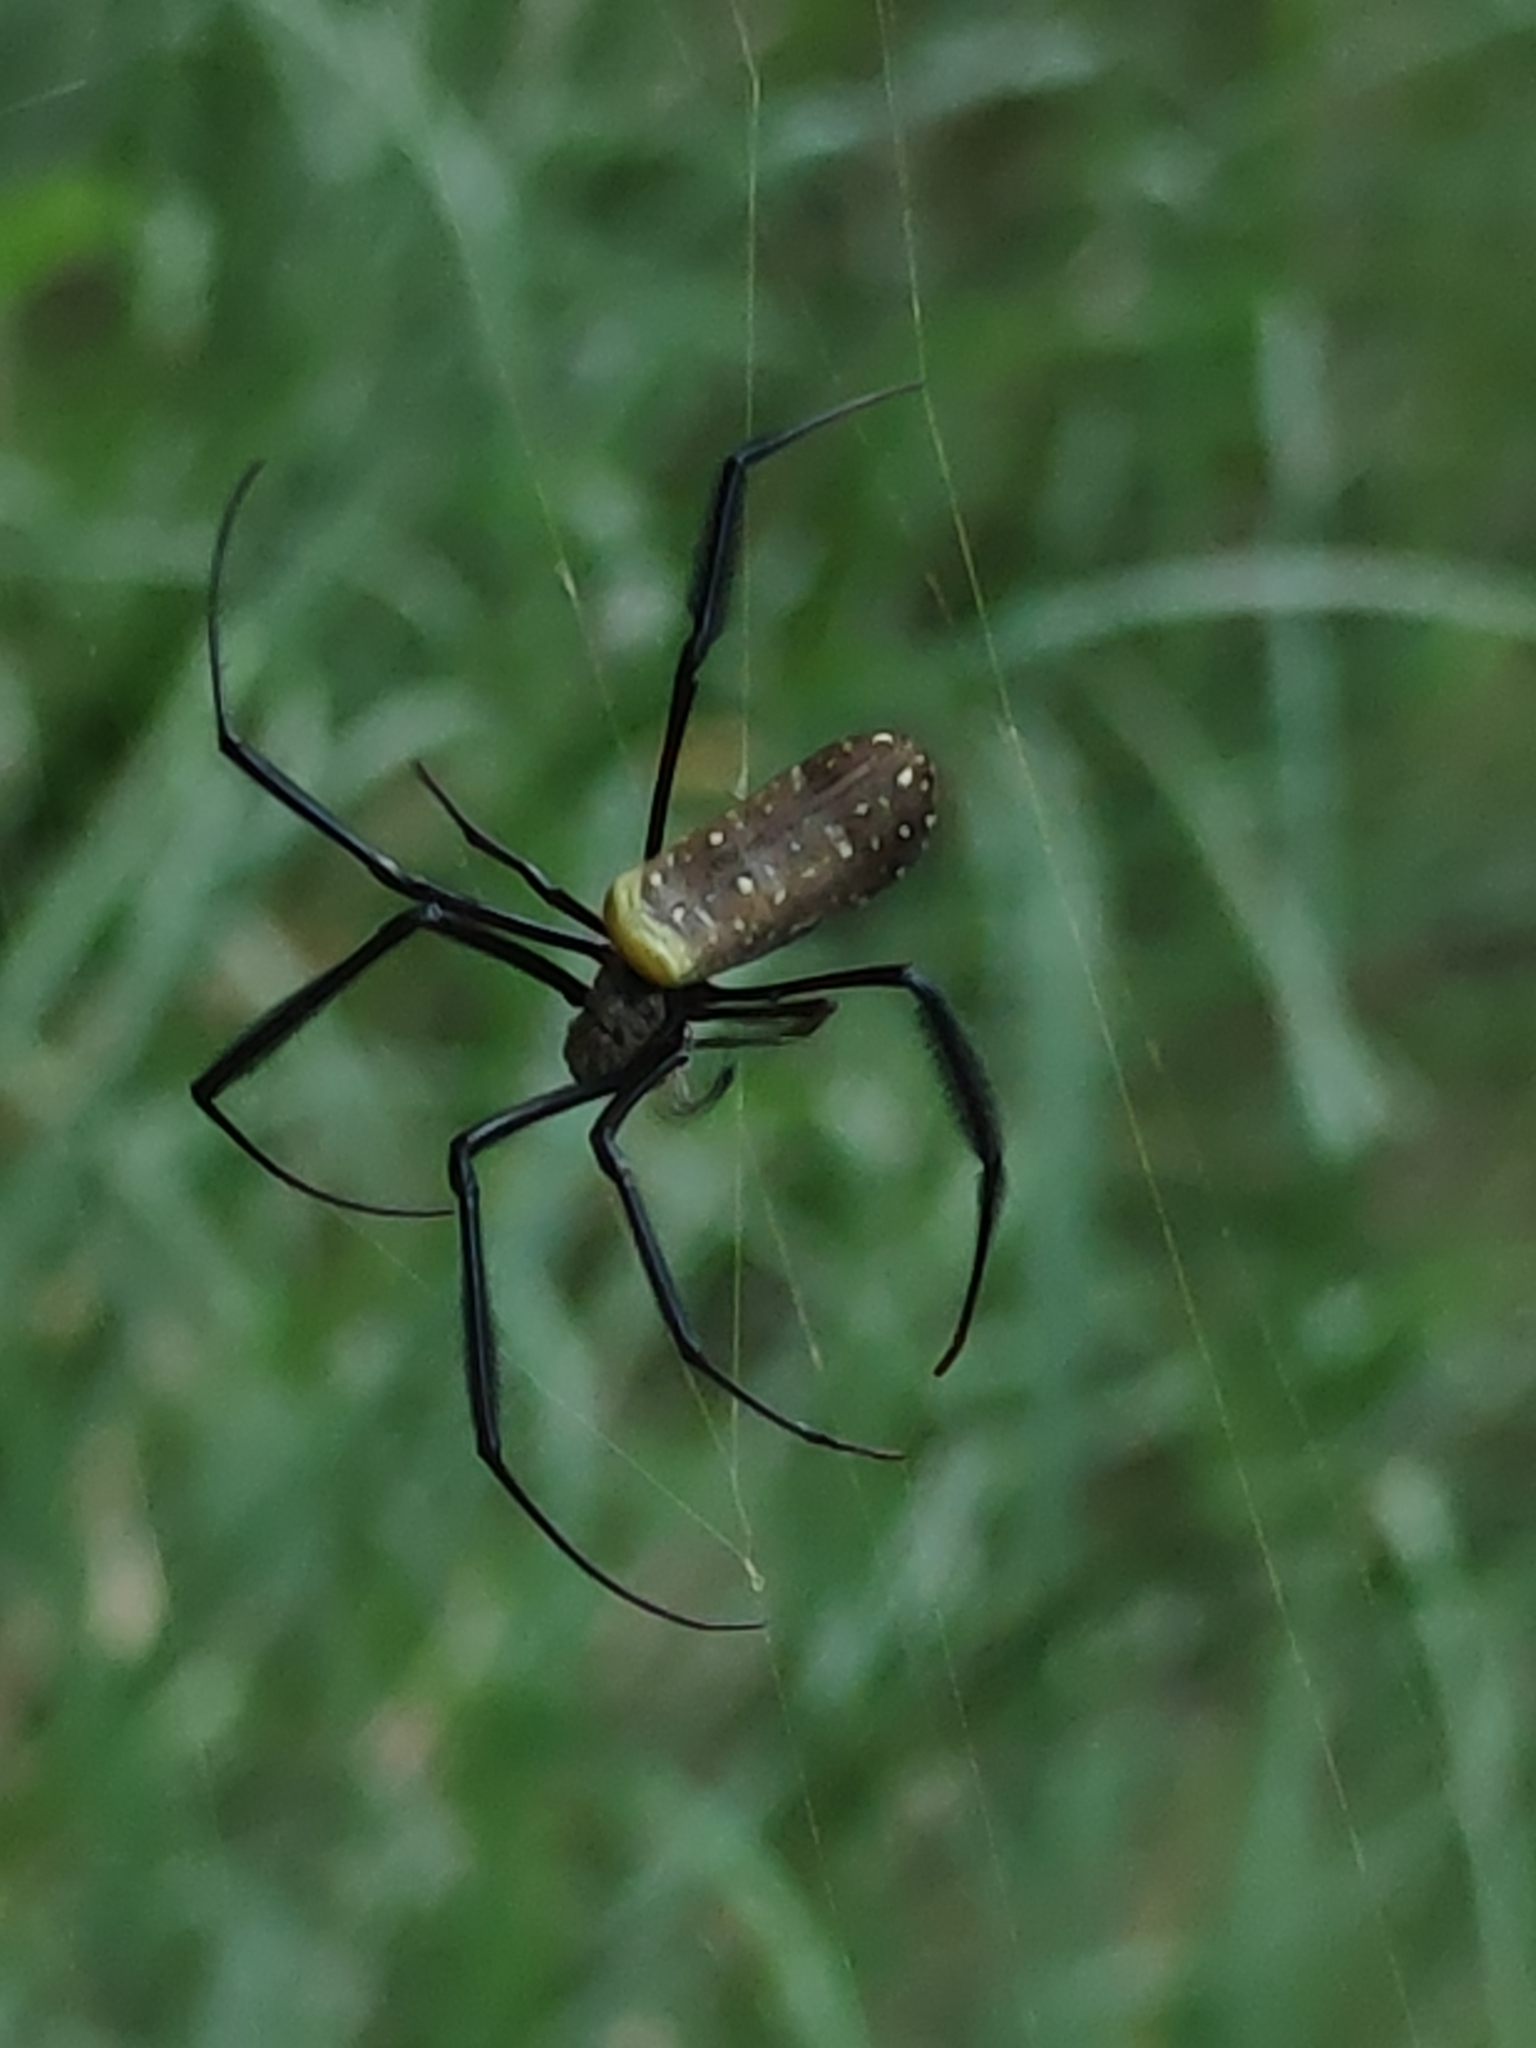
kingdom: Animalia
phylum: Arthropoda
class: Arachnida
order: Araneae
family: Araneidae
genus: Trichonephila
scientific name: Trichonephila fenestrata
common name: Hairy golden orb weaver
